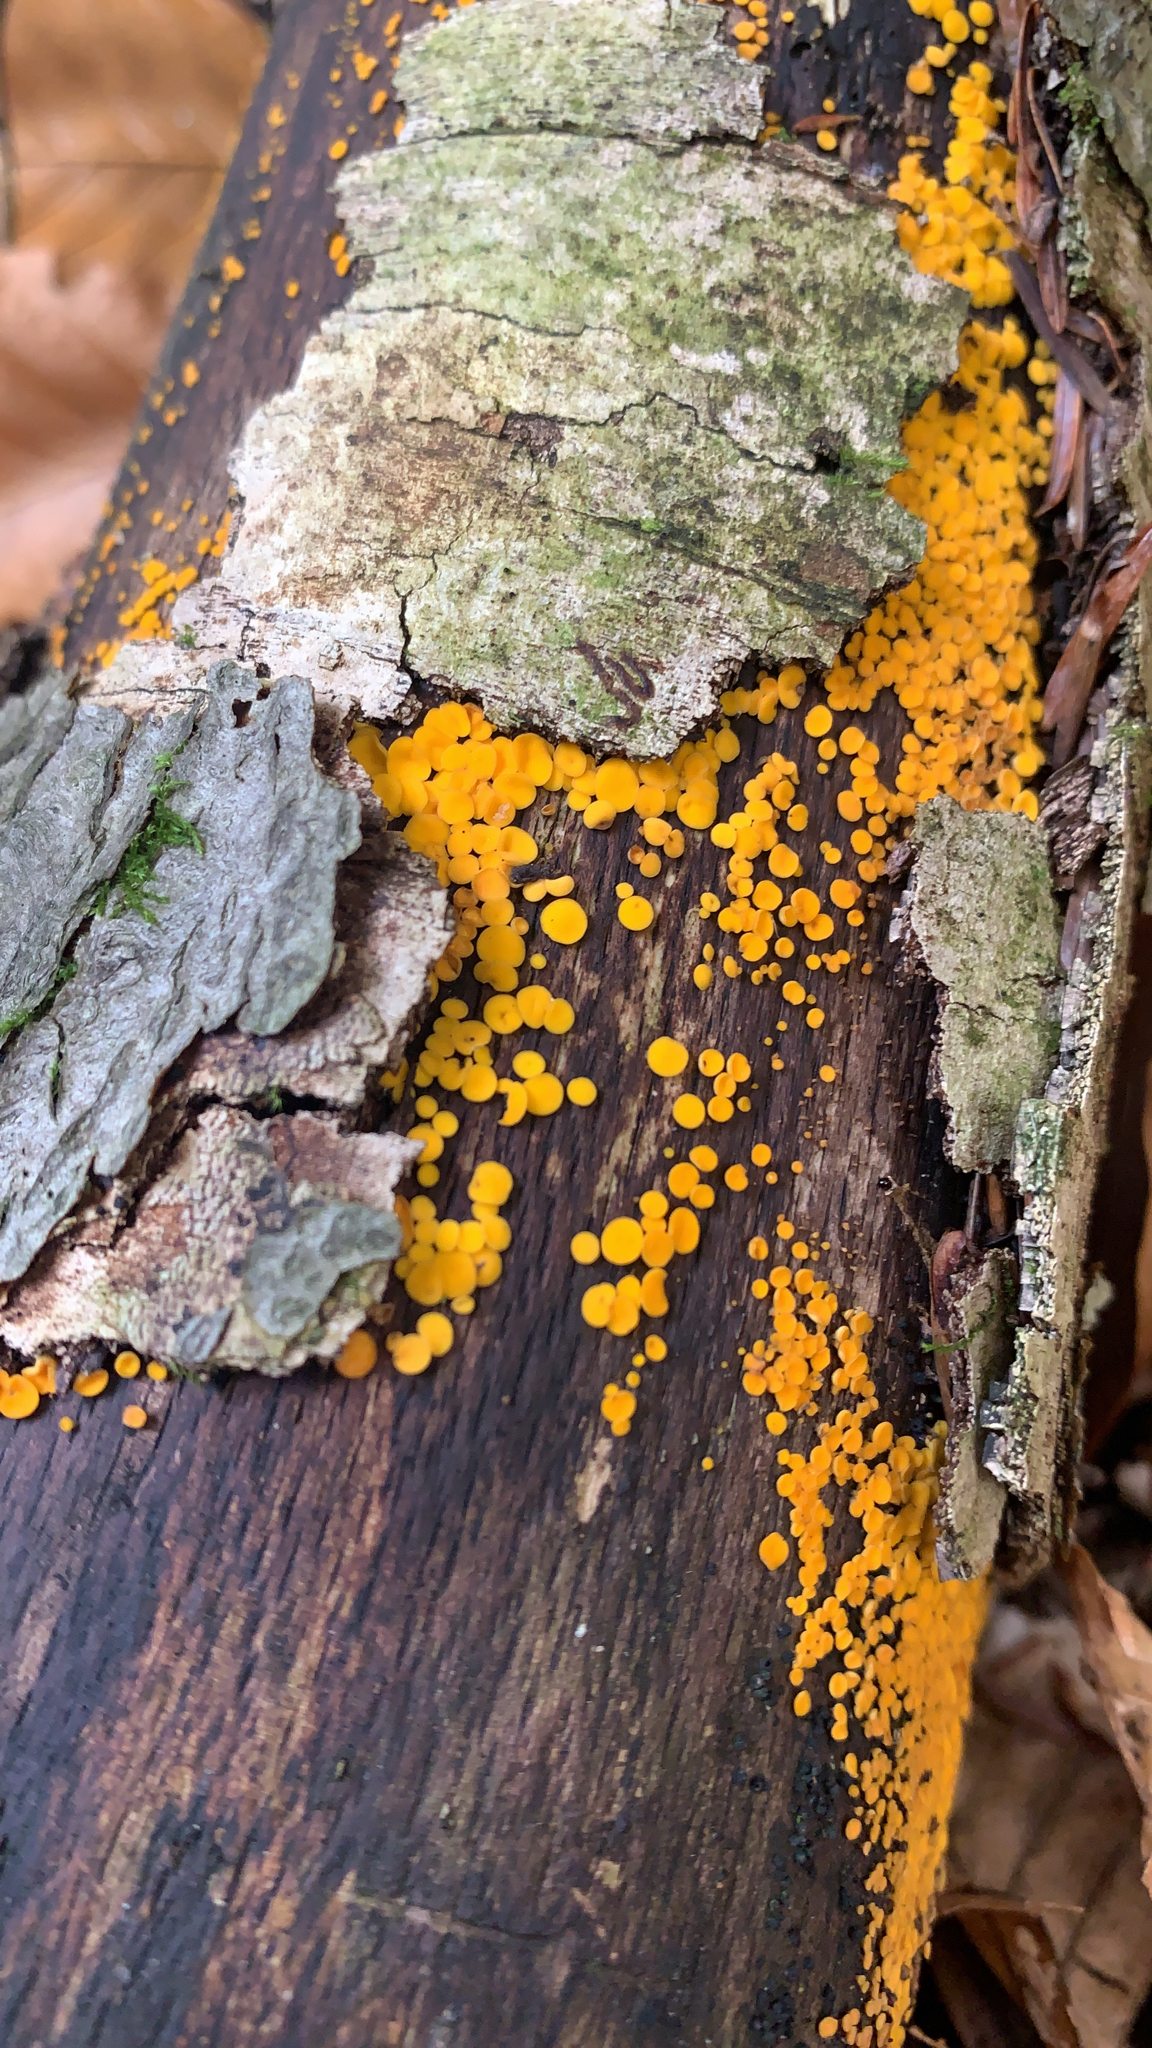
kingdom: Fungi
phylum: Ascomycota
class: Leotiomycetes
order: Helotiales
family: Pezizellaceae
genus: Calycina
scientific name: Calycina citrina
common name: Yellow fairy cups
